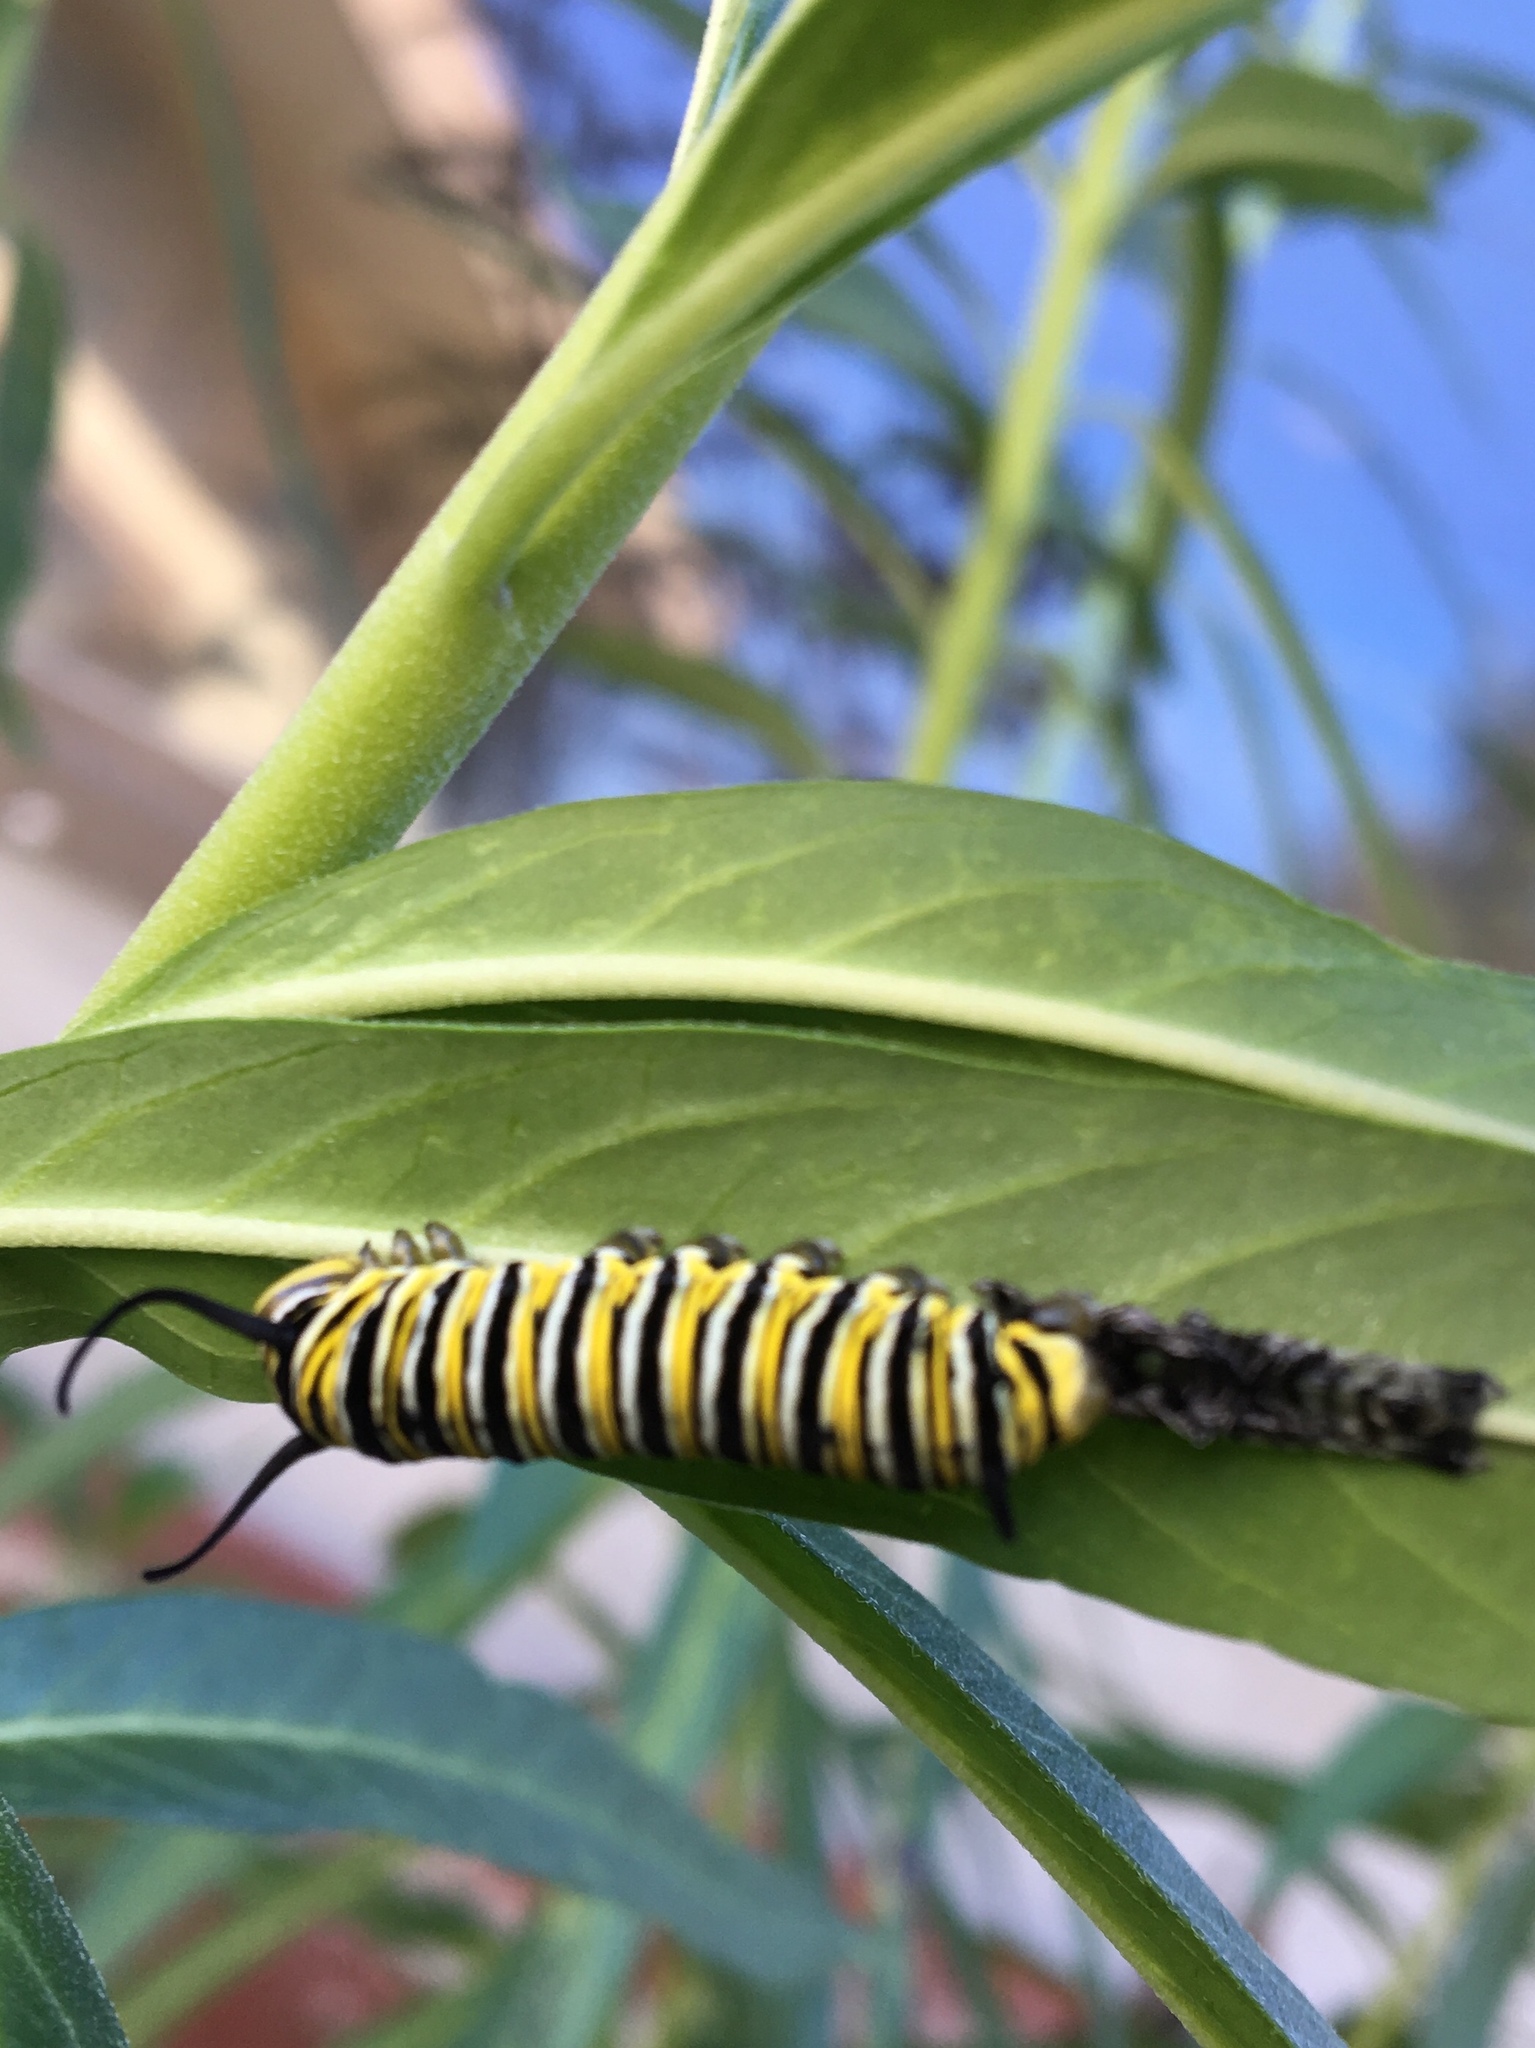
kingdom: Animalia
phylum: Arthropoda
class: Insecta
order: Lepidoptera
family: Nymphalidae
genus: Danaus
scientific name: Danaus plexippus
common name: Monarch
